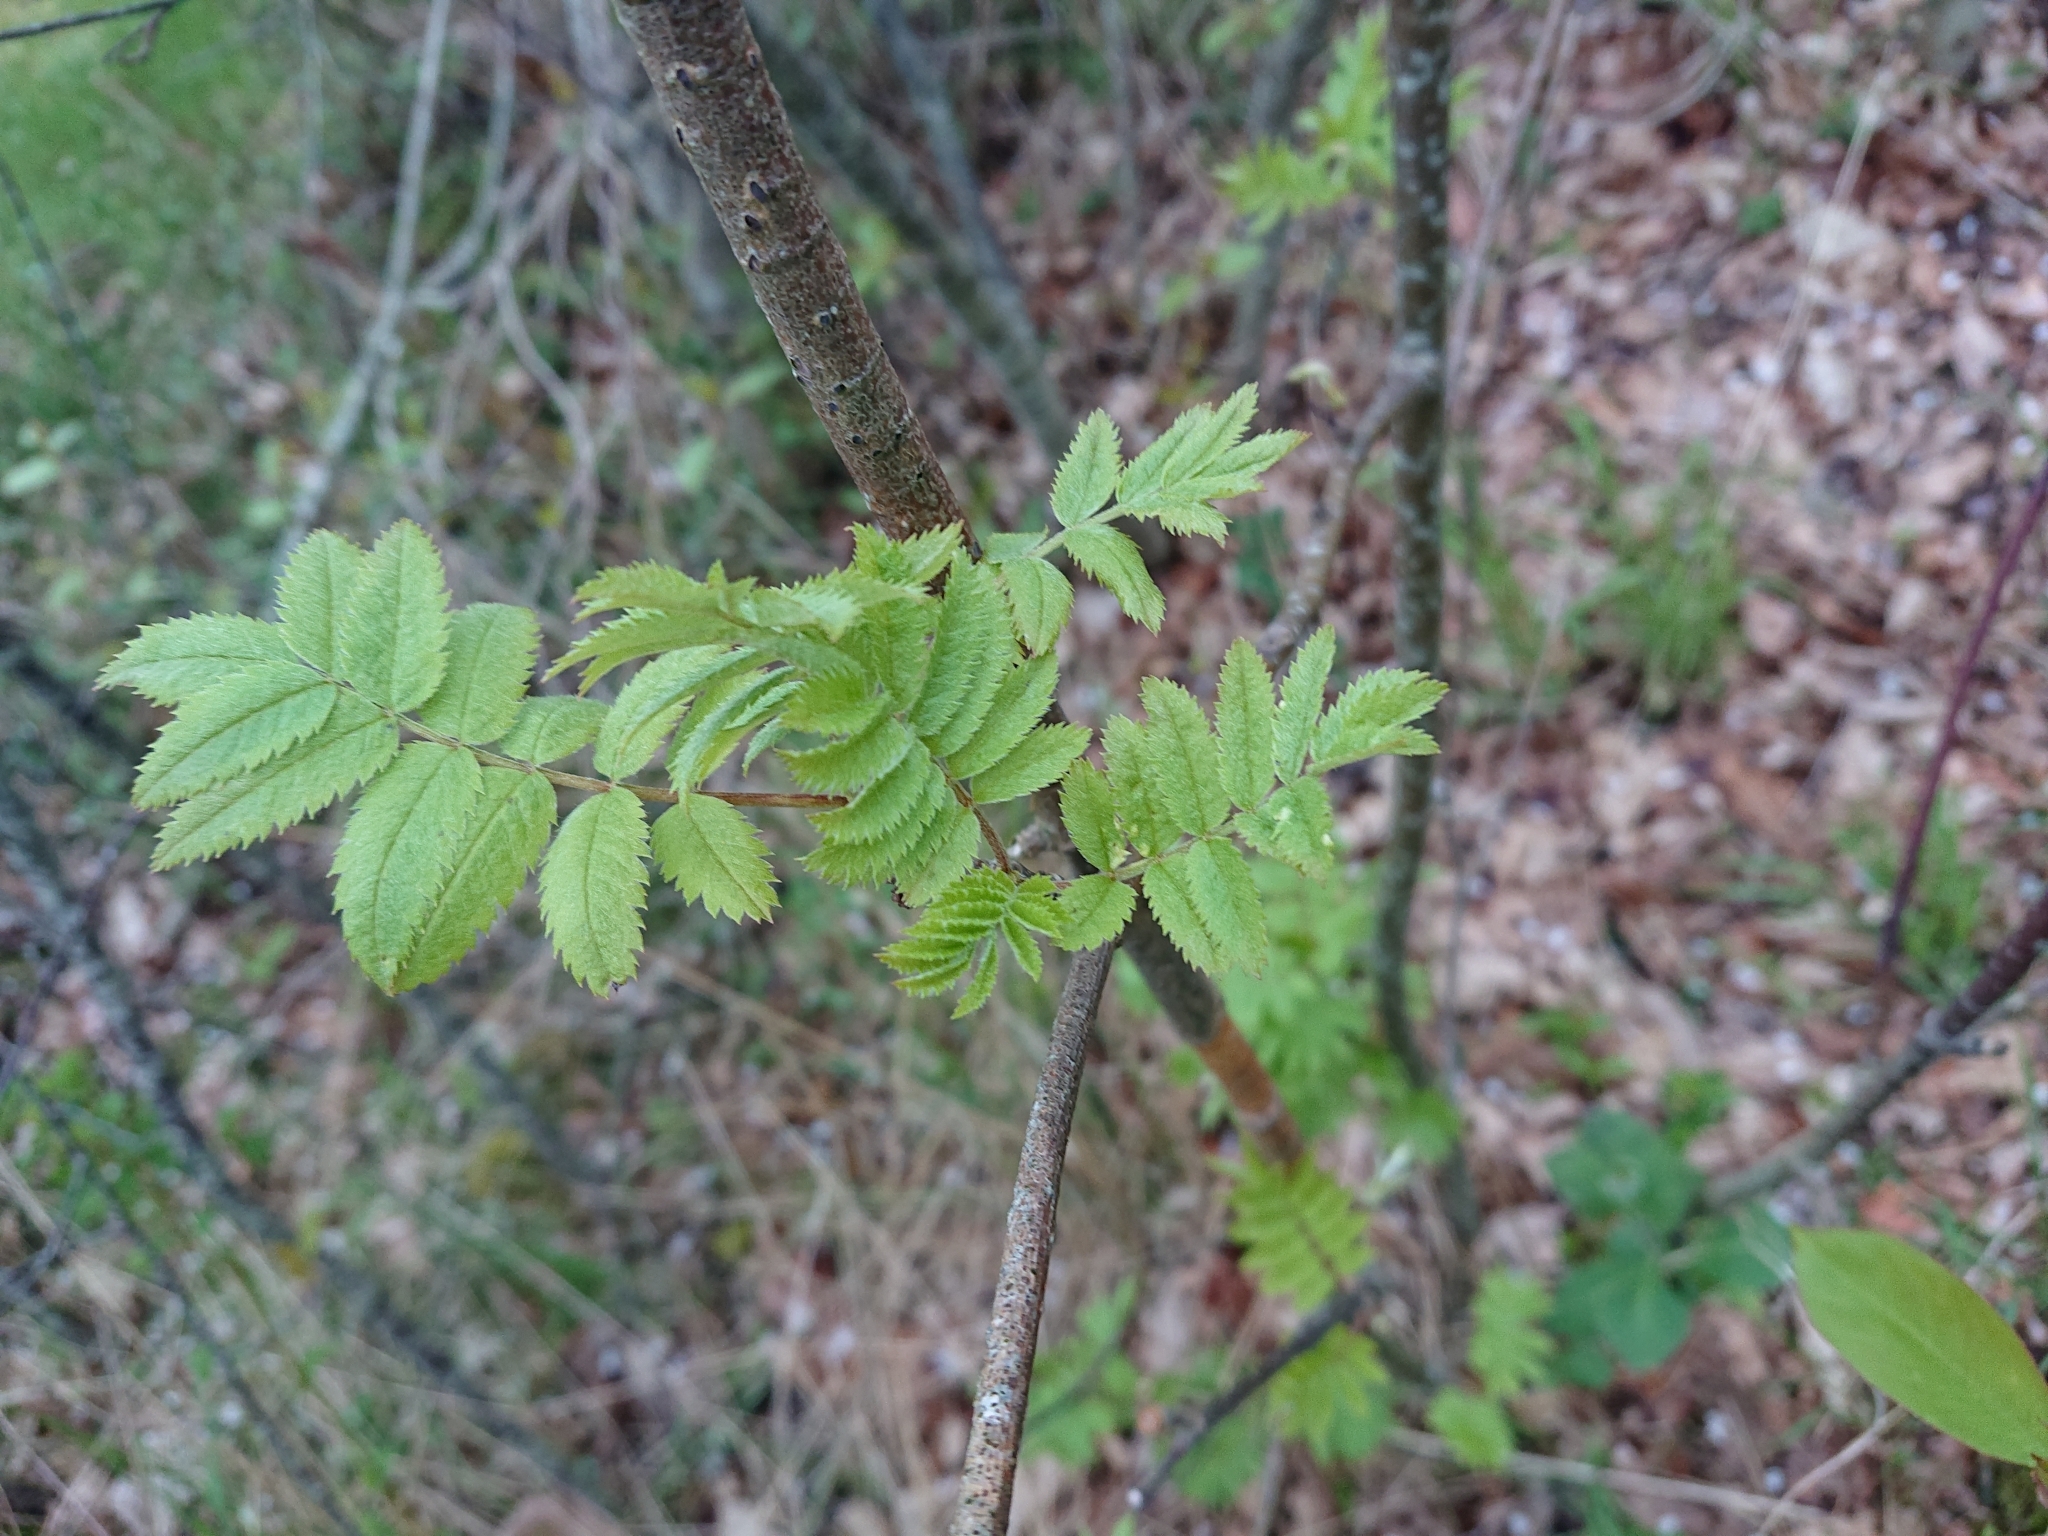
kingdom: Plantae
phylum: Tracheophyta
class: Magnoliopsida
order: Rosales
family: Rosaceae
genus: Sorbus
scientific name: Sorbus aucuparia
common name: Rowan
